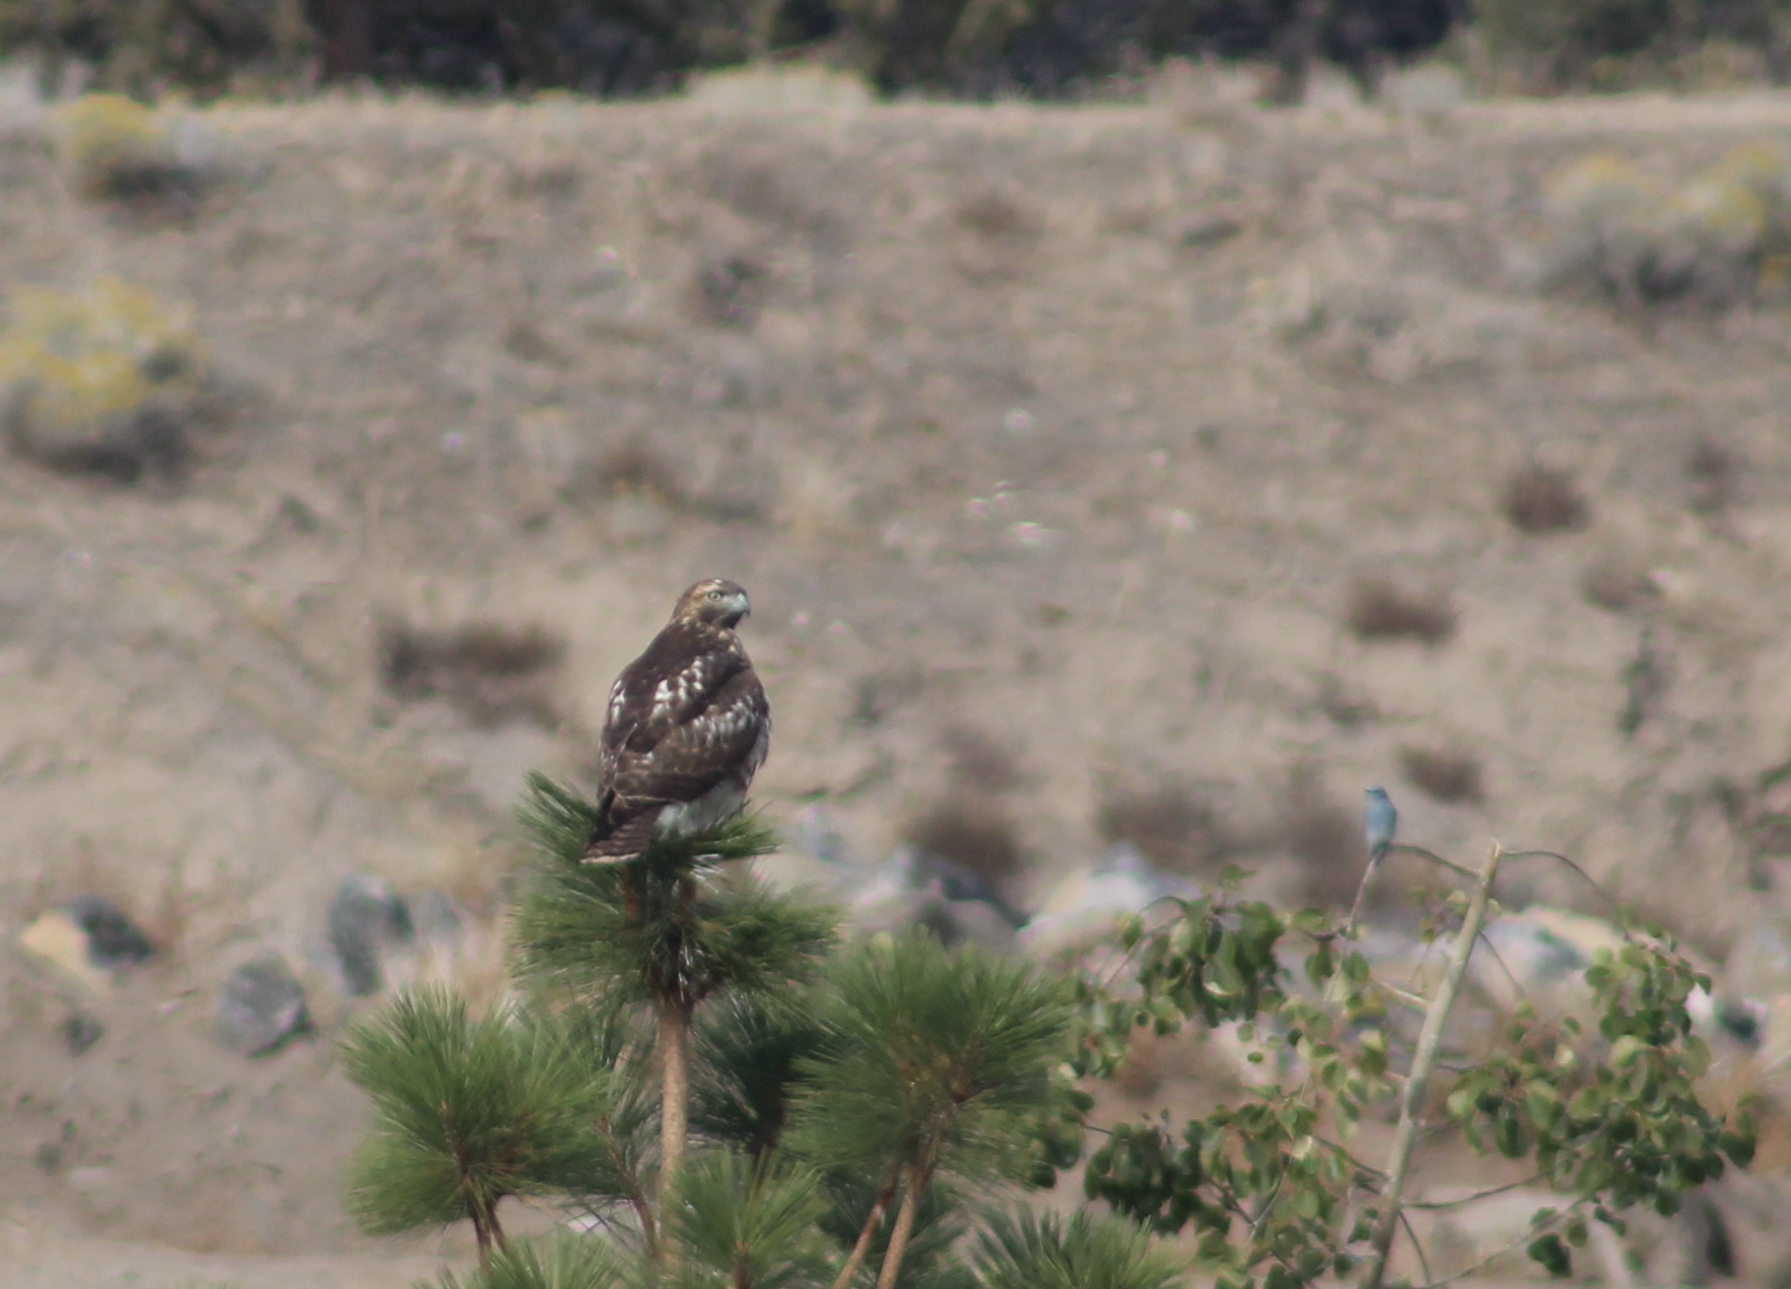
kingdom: Animalia
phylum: Chordata
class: Aves
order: Accipitriformes
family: Accipitridae
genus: Buteo
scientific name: Buteo jamaicensis
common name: Red-tailed hawk
